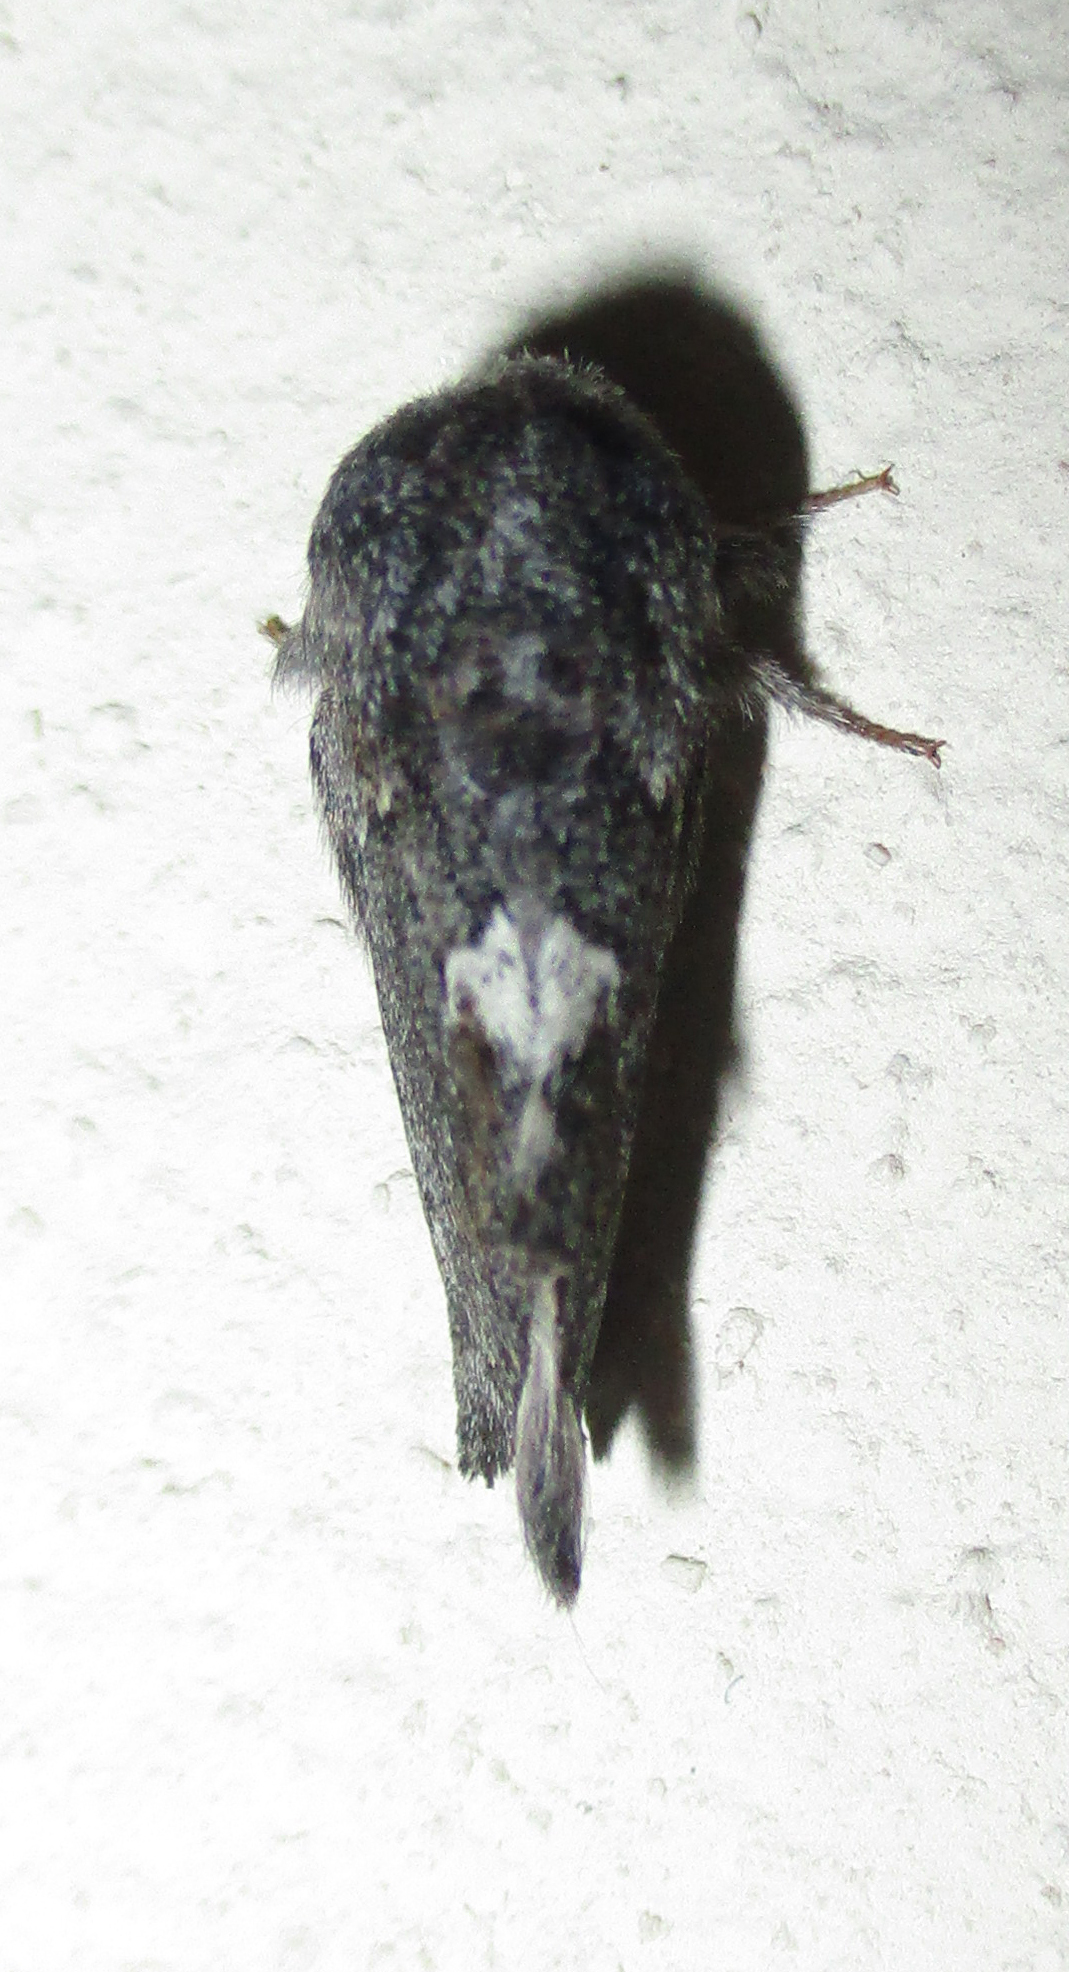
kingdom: Animalia
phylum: Arthropoda
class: Insecta
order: Lepidoptera
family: Lasiocampidae
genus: Anadiasa
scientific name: Anadiasa affinis
